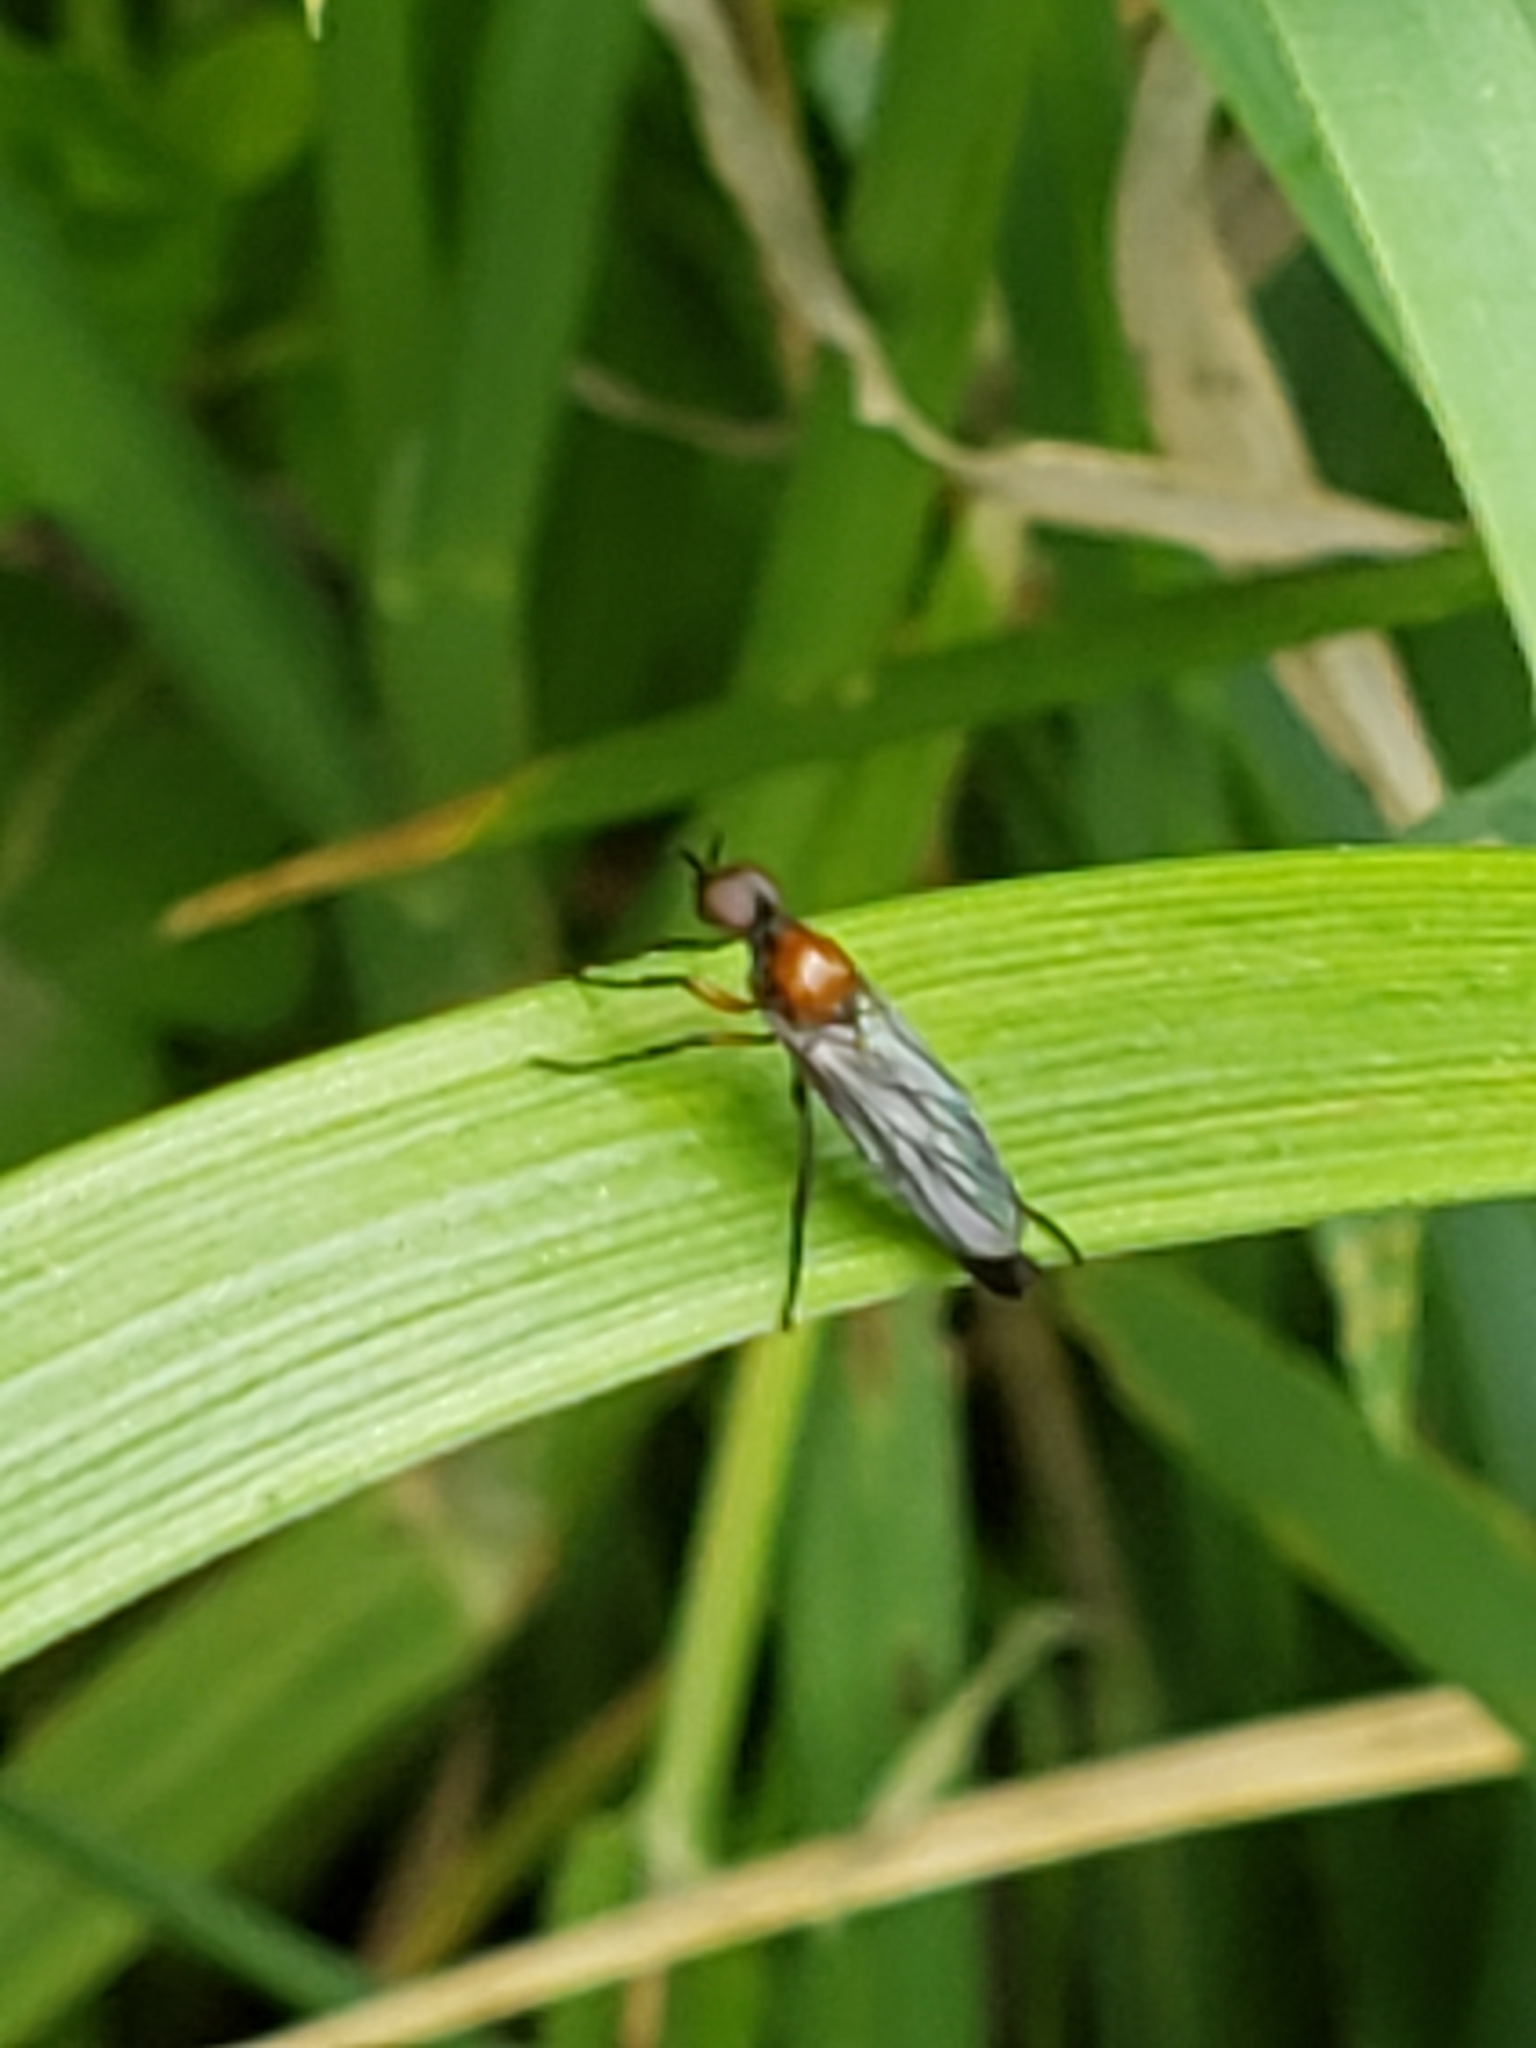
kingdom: Animalia
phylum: Arthropoda
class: Insecta
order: Diptera
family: Bibionidae
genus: Dilophus
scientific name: Dilophus spinipes
